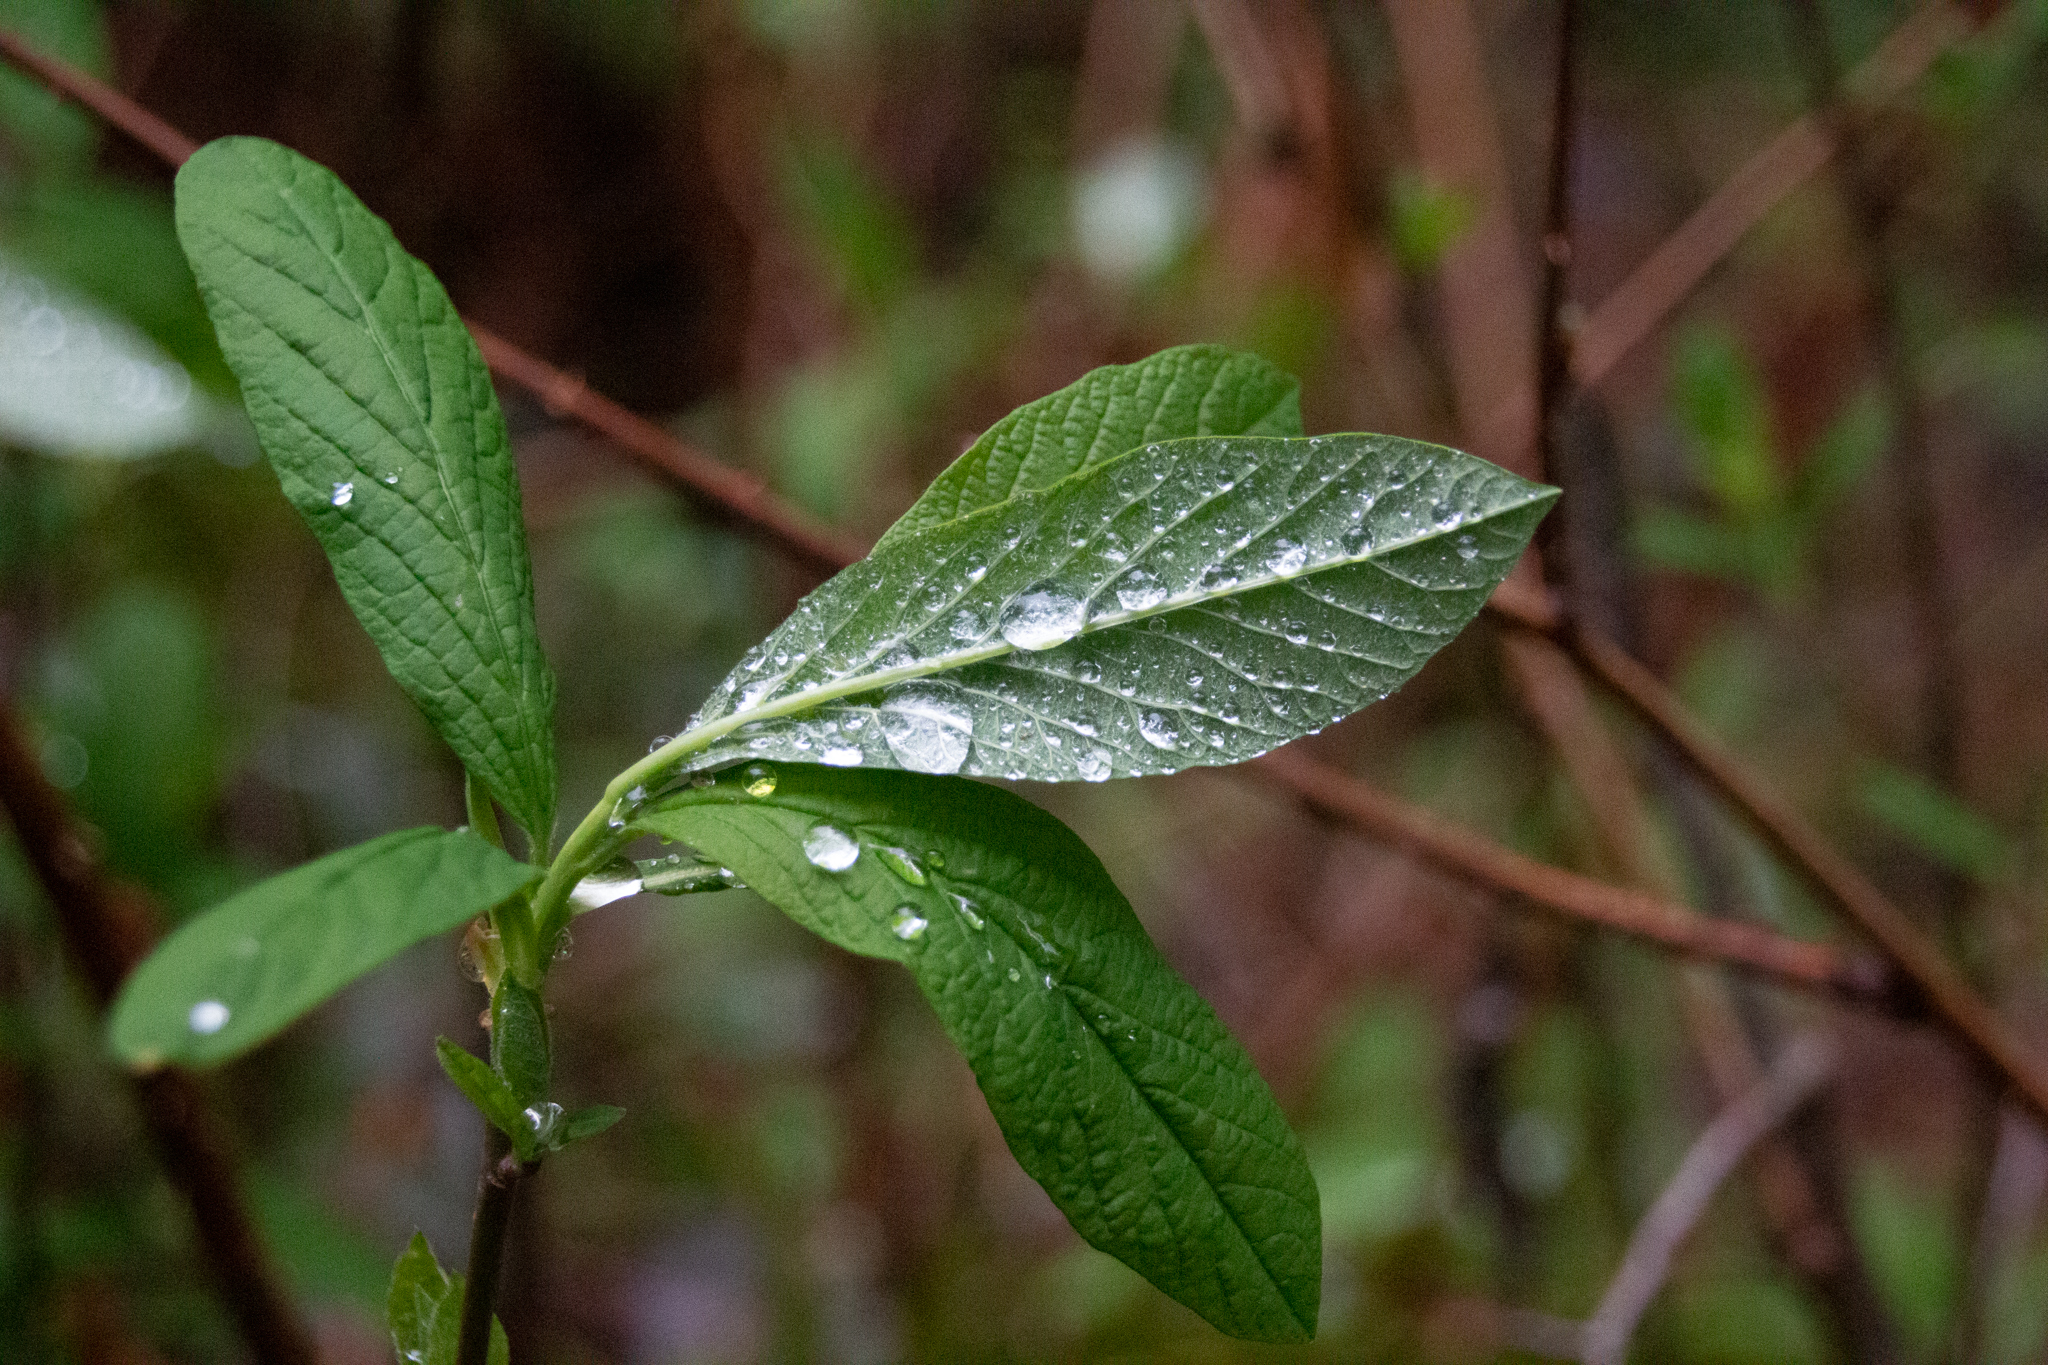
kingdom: Plantae
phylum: Tracheophyta
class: Magnoliopsida
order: Rosales
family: Rosaceae
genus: Oemleria
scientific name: Oemleria cerasiformis
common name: Osoberry
